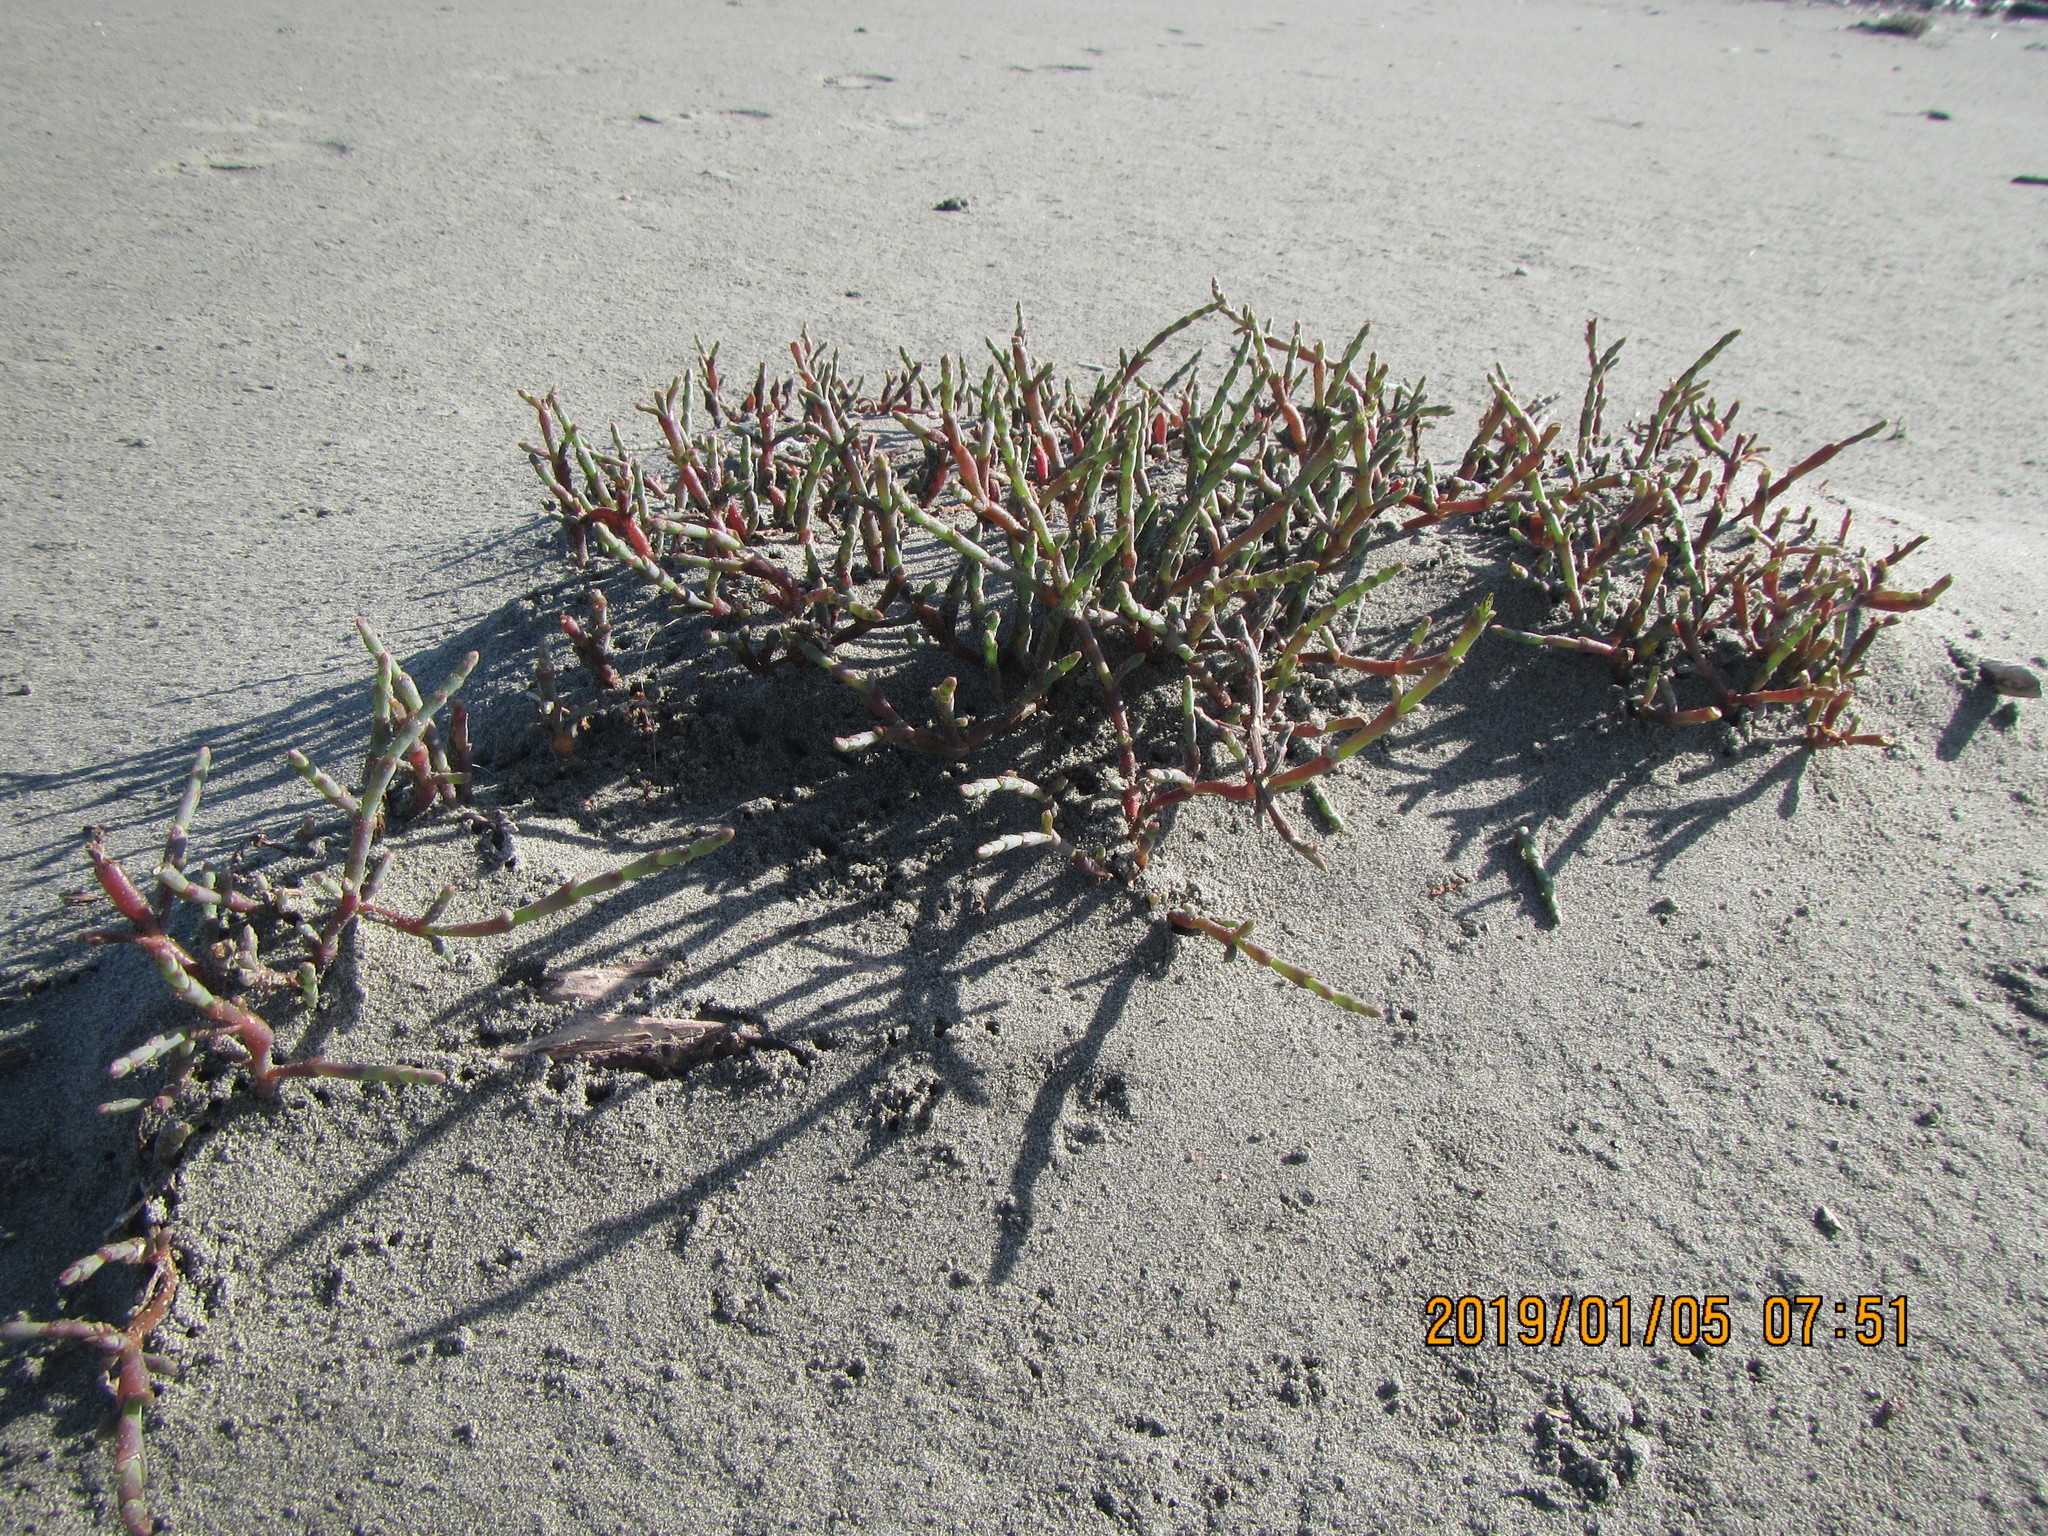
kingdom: Plantae
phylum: Tracheophyta
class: Magnoliopsida
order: Caryophyllales
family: Amaranthaceae
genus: Salicornia
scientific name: Salicornia quinqueflora
